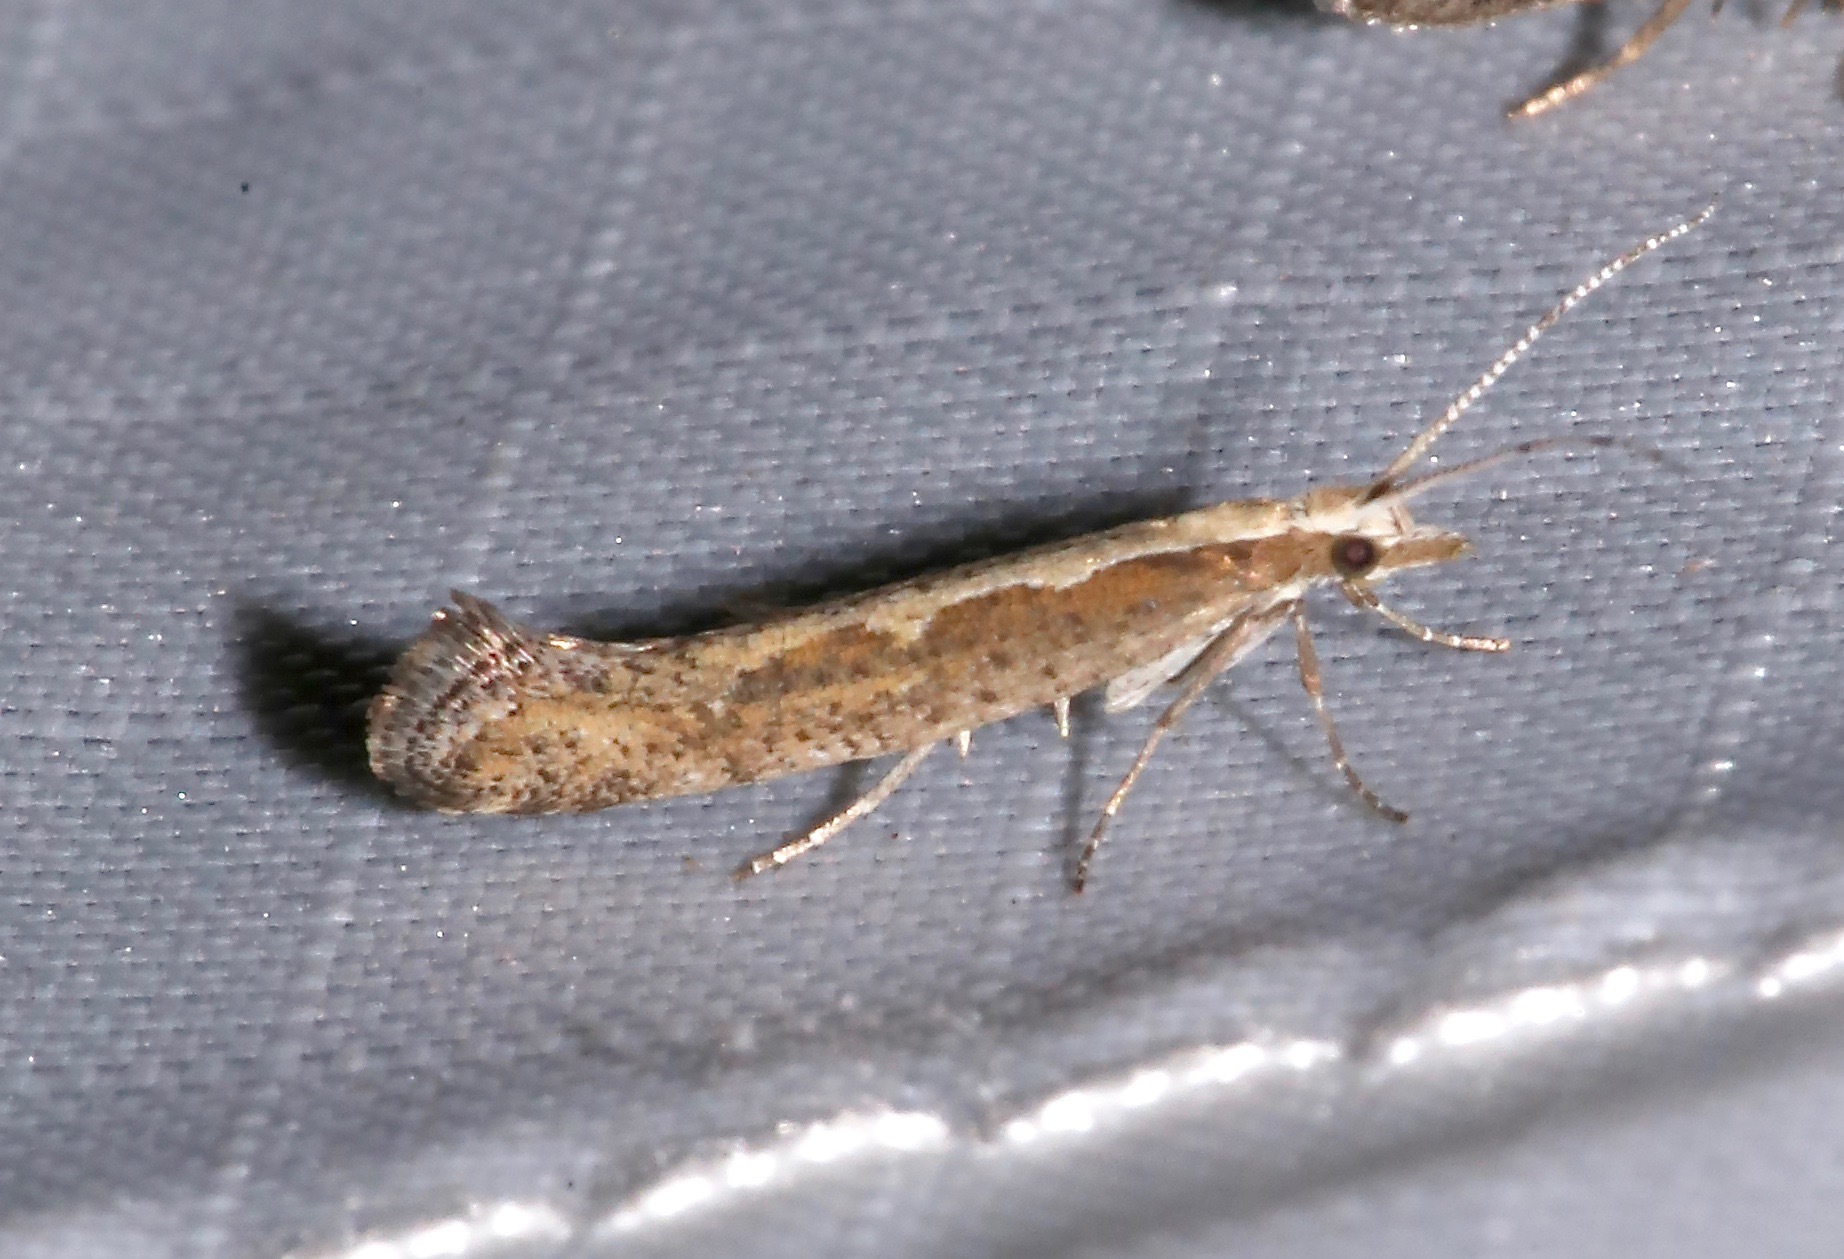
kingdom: Animalia
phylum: Arthropoda
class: Insecta
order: Lepidoptera
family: Plutellidae
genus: Plutella
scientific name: Plutella xylostella
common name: Diamond-back moth
